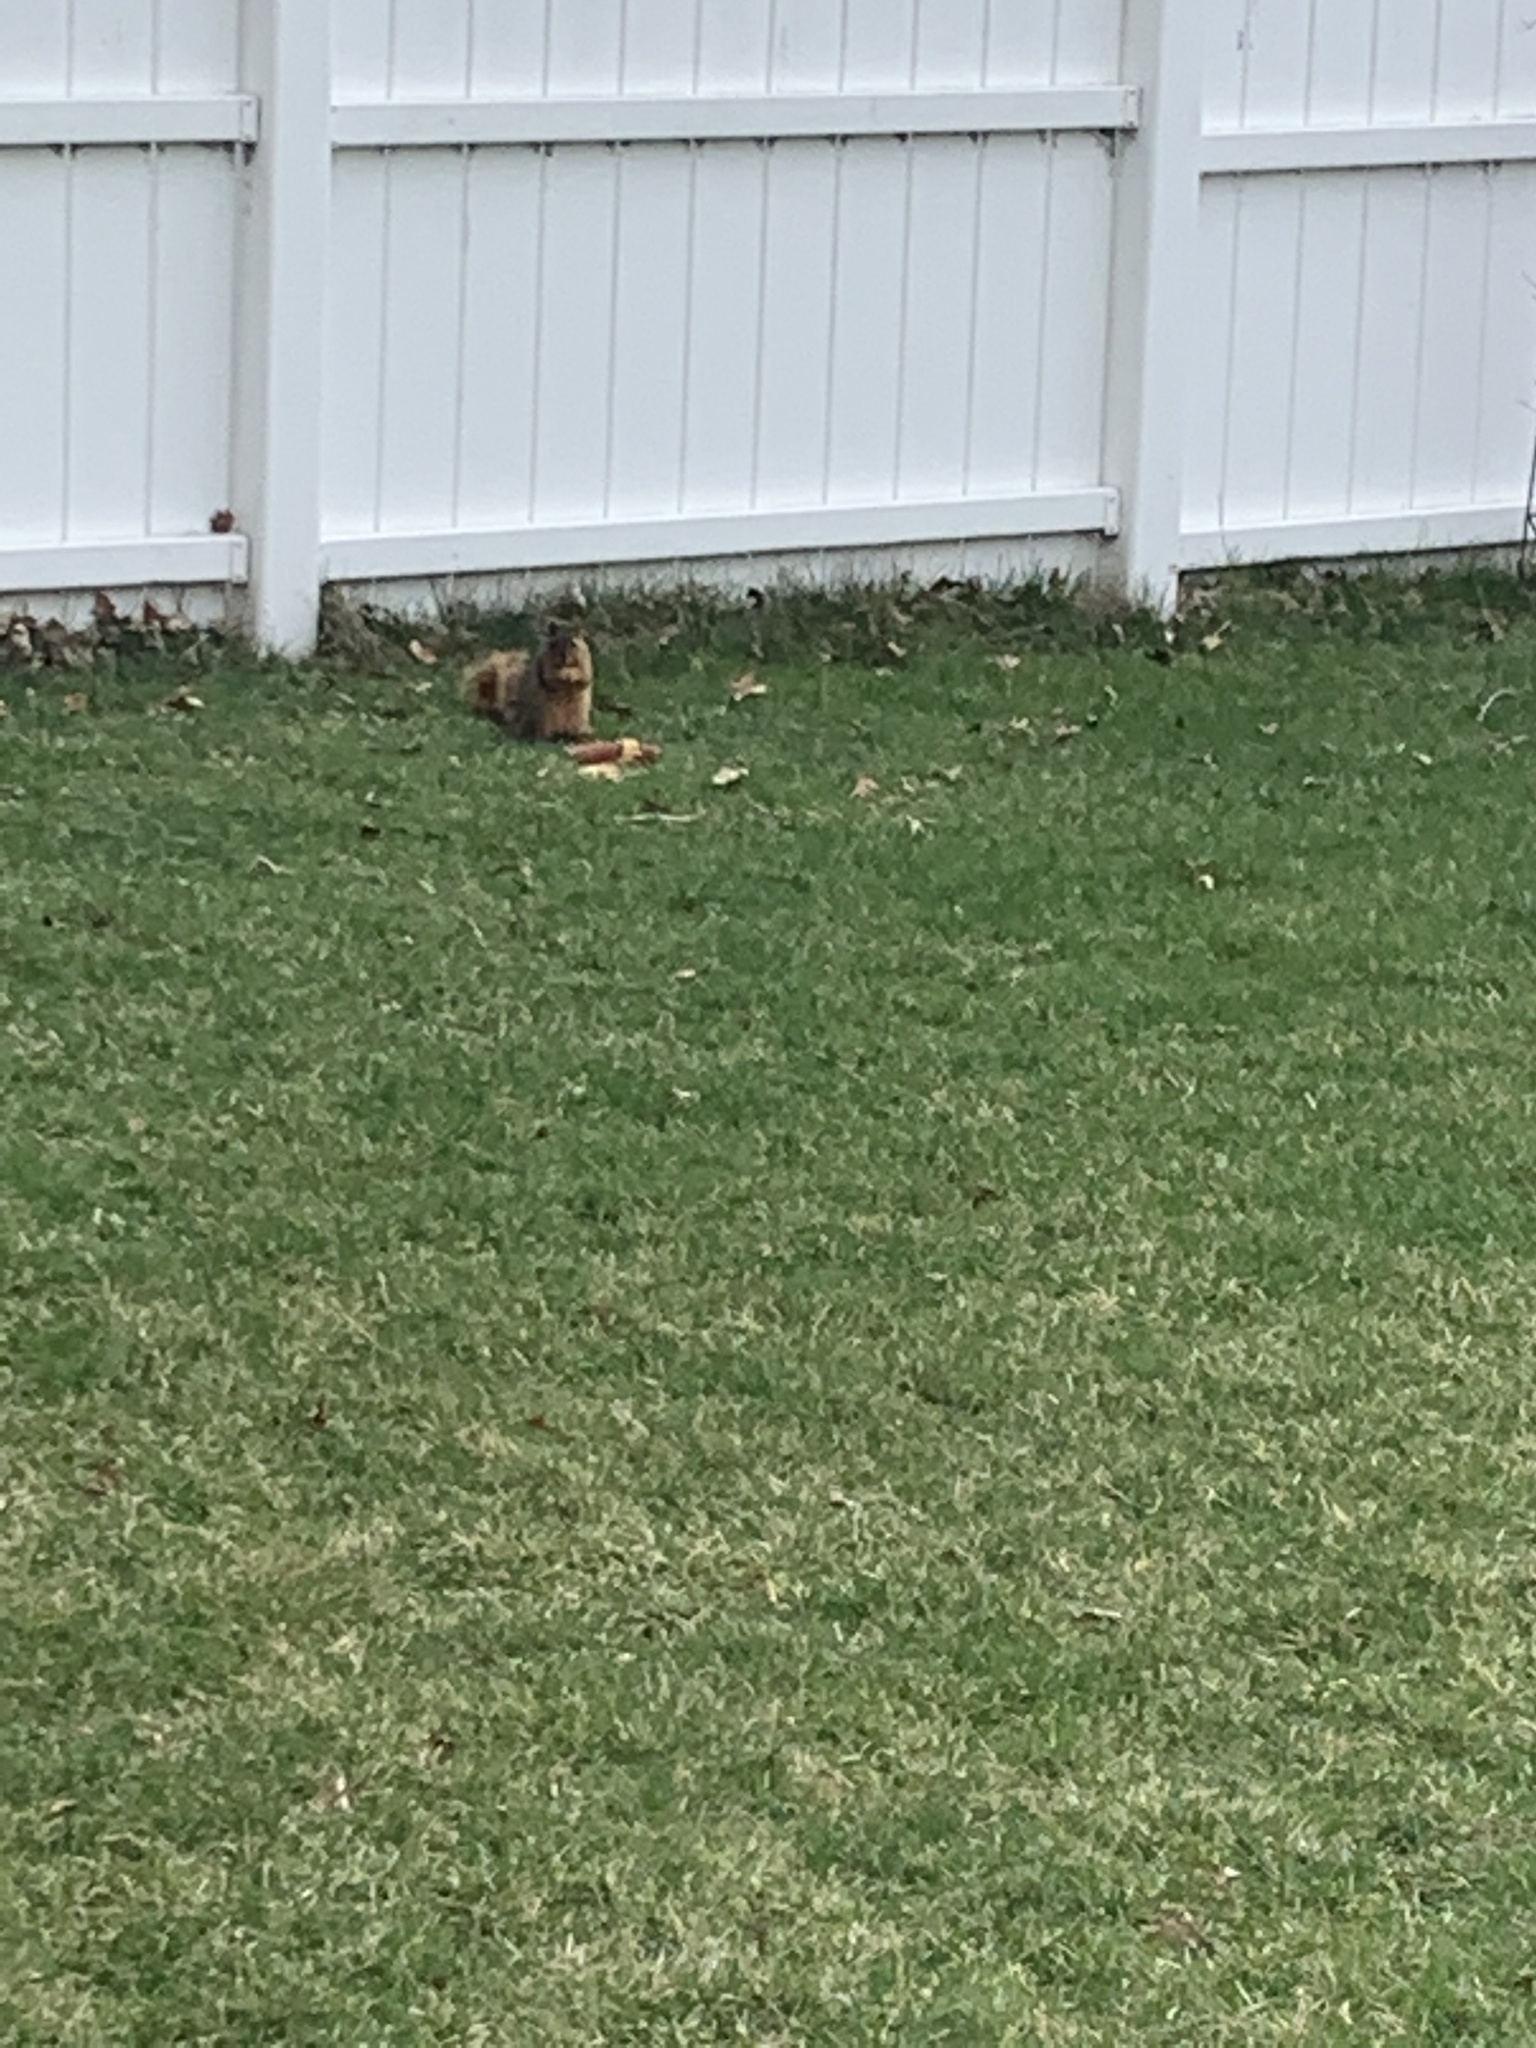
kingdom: Animalia
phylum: Chordata
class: Mammalia
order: Rodentia
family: Sciuridae
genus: Sciurus
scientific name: Sciurus niger
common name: Fox squirrel
